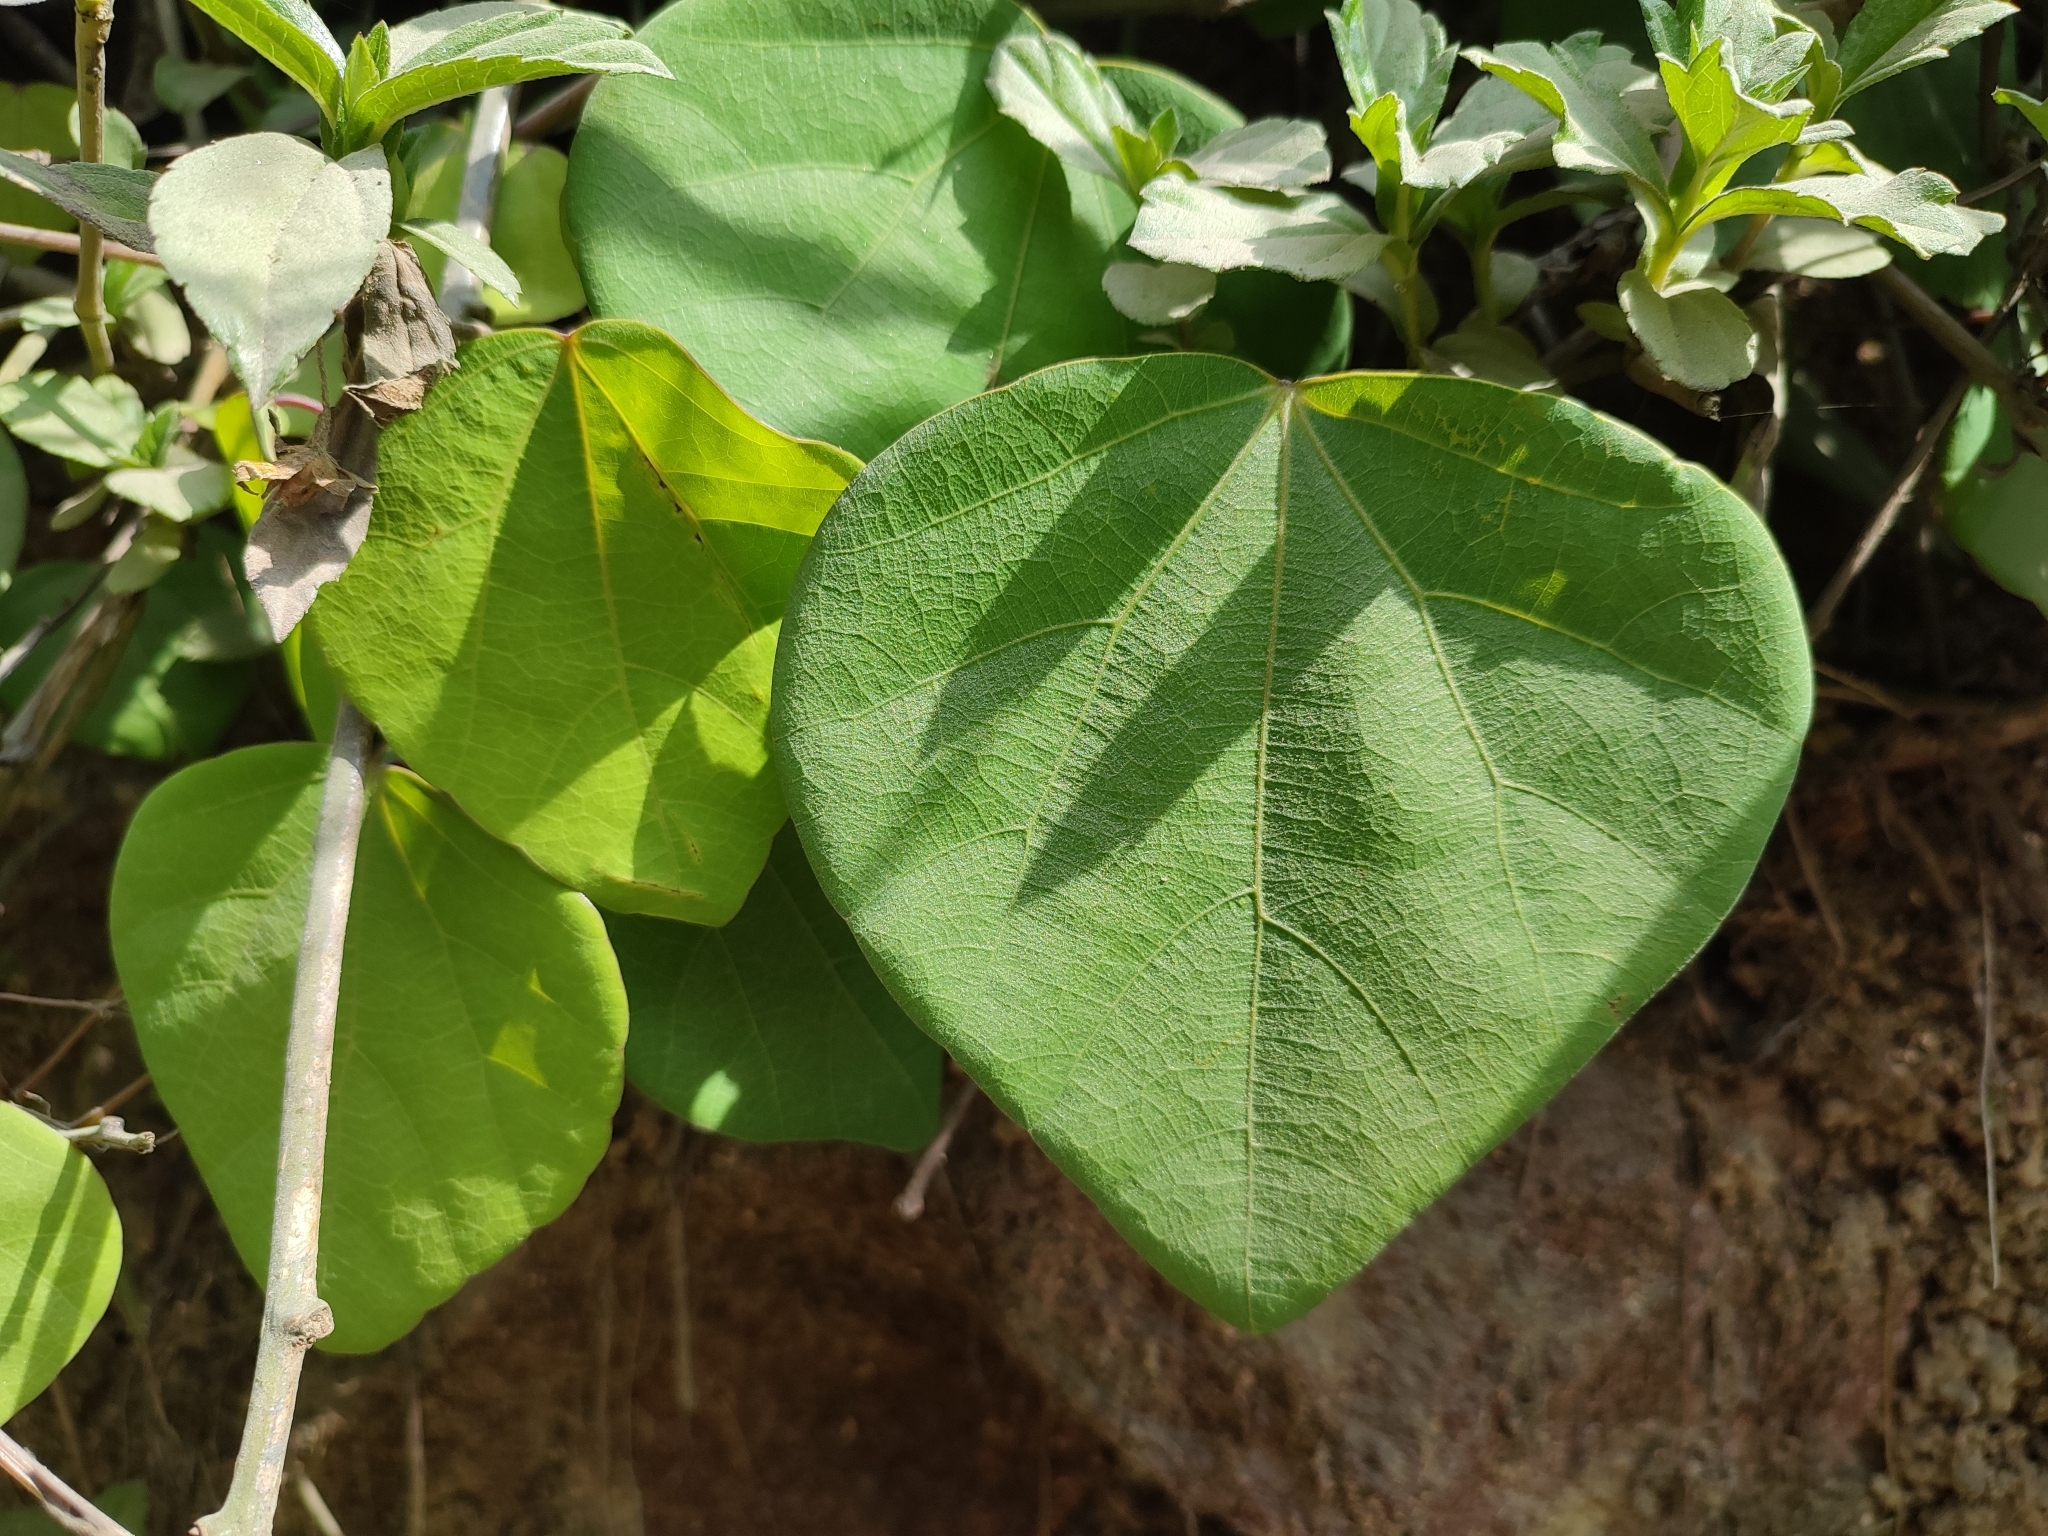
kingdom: Plantae
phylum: Tracheophyta
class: Magnoliopsida
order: Ranunculales
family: Menispermaceae
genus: Diploclisia
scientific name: Diploclisia glaucescens
